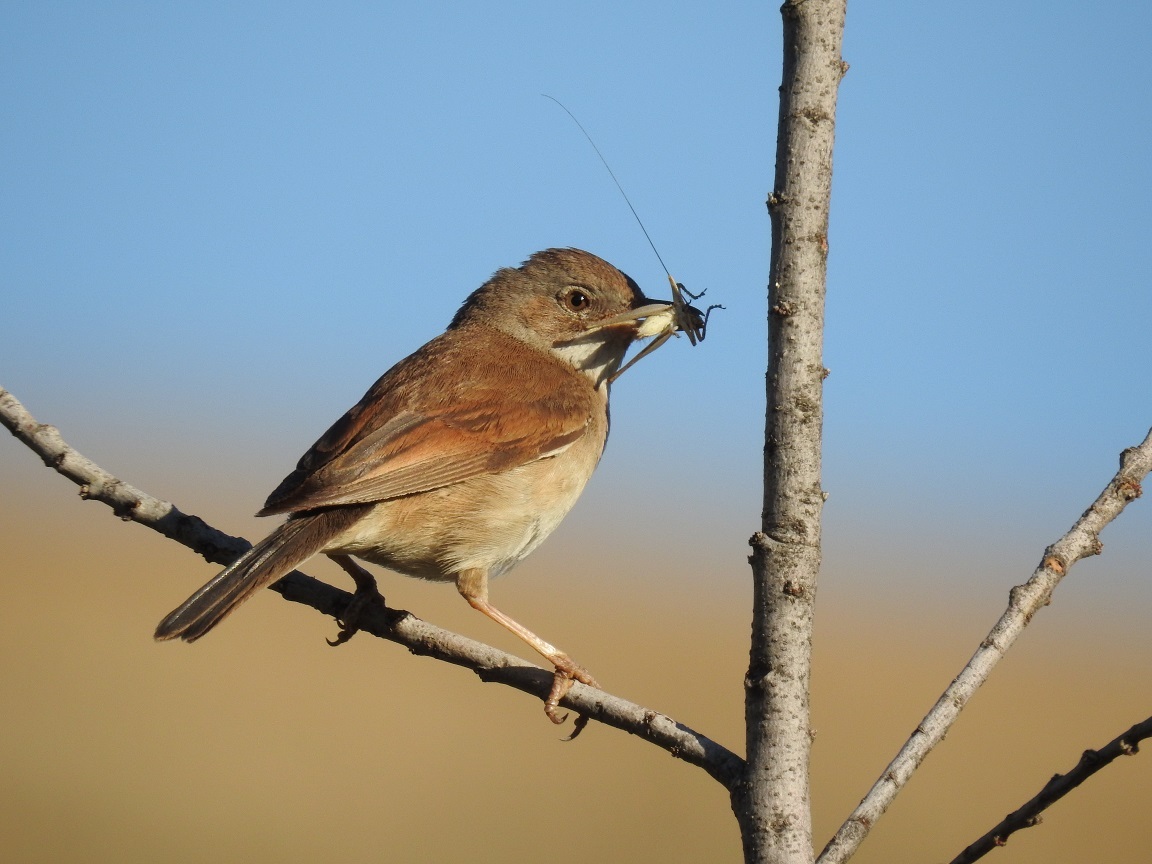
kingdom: Animalia
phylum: Chordata
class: Aves
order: Passeriformes
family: Sylviidae
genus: Sylvia
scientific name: Sylvia communis
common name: Common whitethroat
